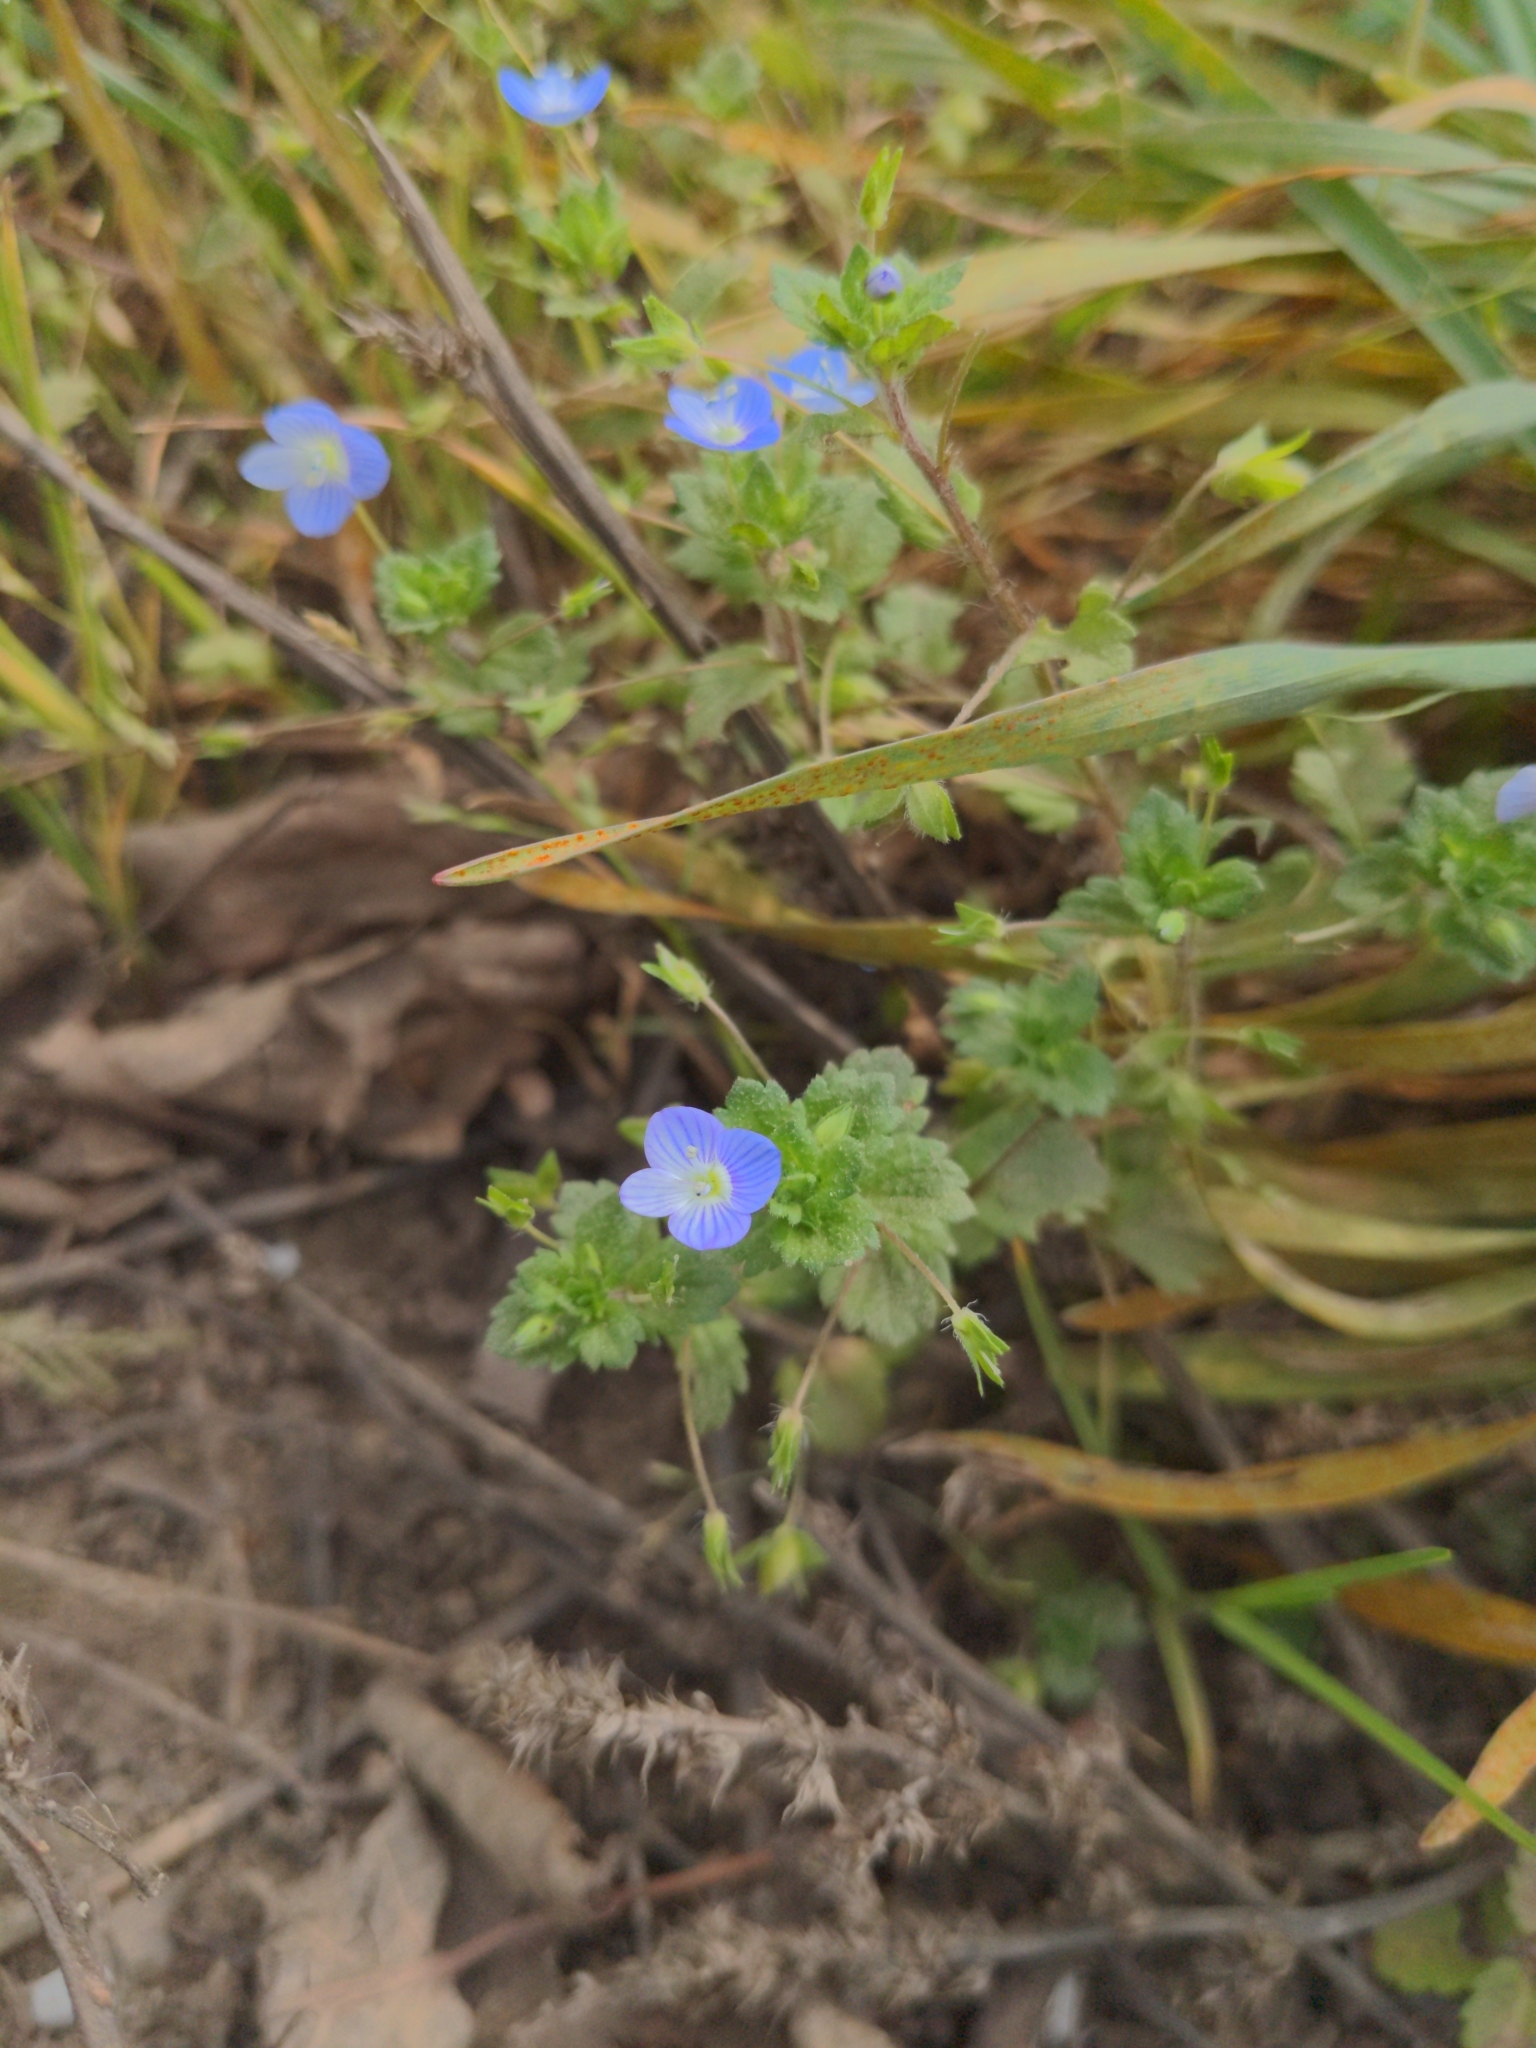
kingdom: Plantae
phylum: Tracheophyta
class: Magnoliopsida
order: Lamiales
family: Plantaginaceae
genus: Veronica
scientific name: Veronica persica
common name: Common field-speedwell
